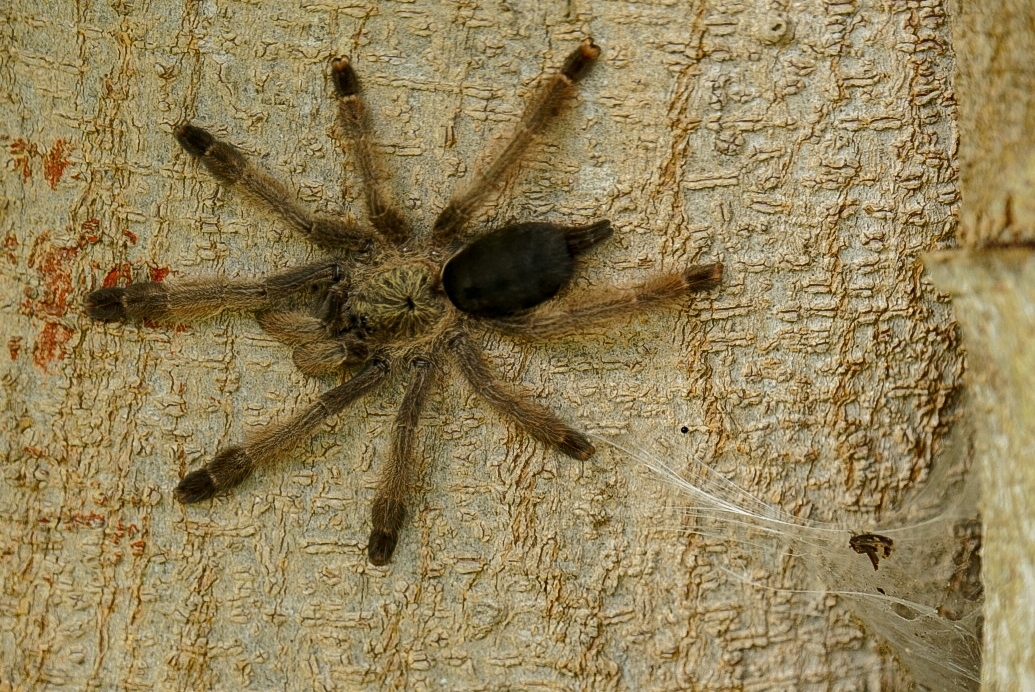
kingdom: Animalia
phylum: Arthropoda
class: Arachnida
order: Araneae
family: Theraphosidae
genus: Psalmopoeus
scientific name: Psalmopoeus pulcher
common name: Tarantula spiders
